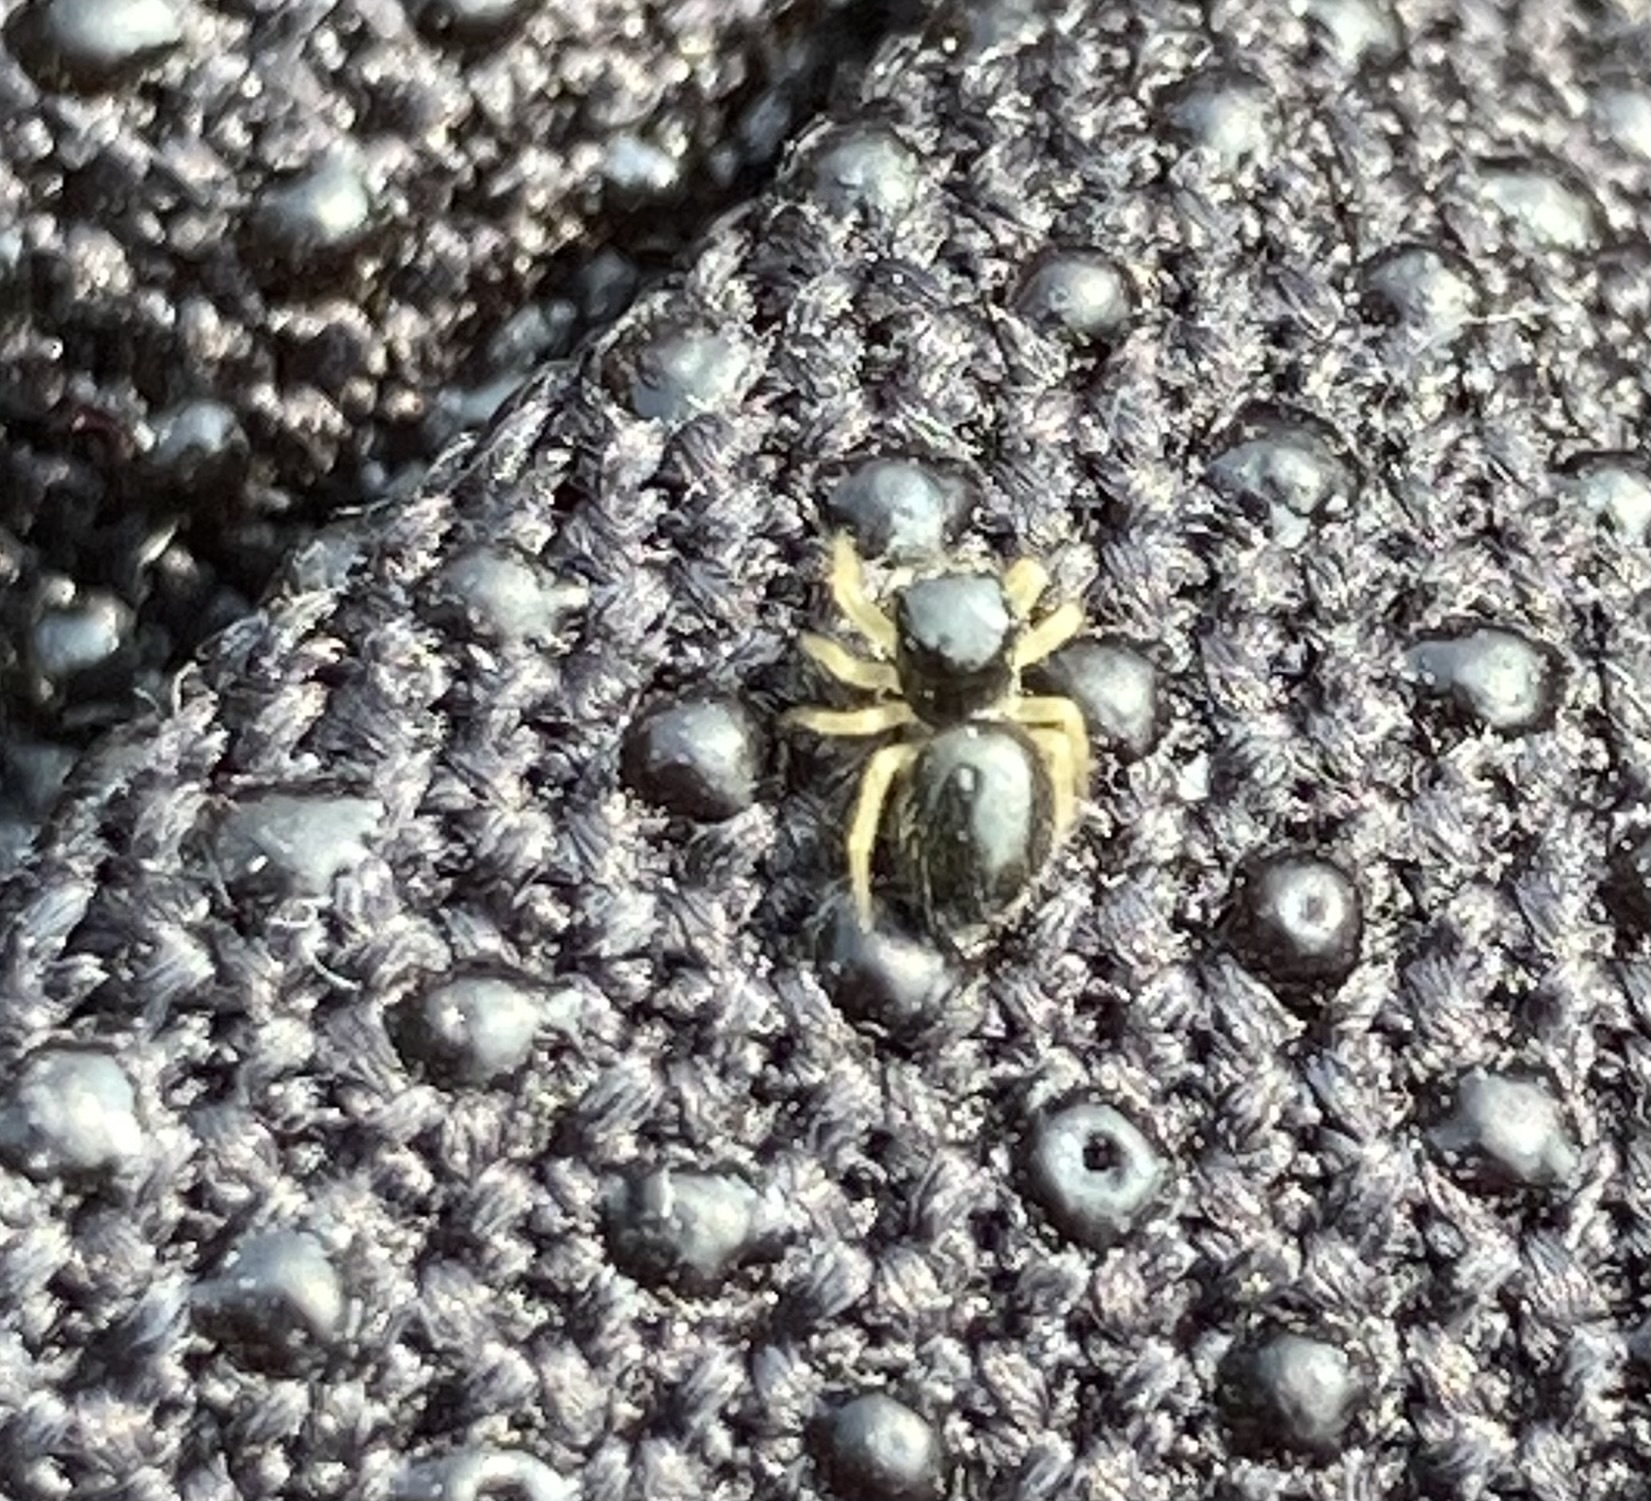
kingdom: Animalia
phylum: Arthropoda
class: Arachnida
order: Araneae
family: Salticidae
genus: Phidippus
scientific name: Phidippus whitmani
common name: Whitman's jumping spider
